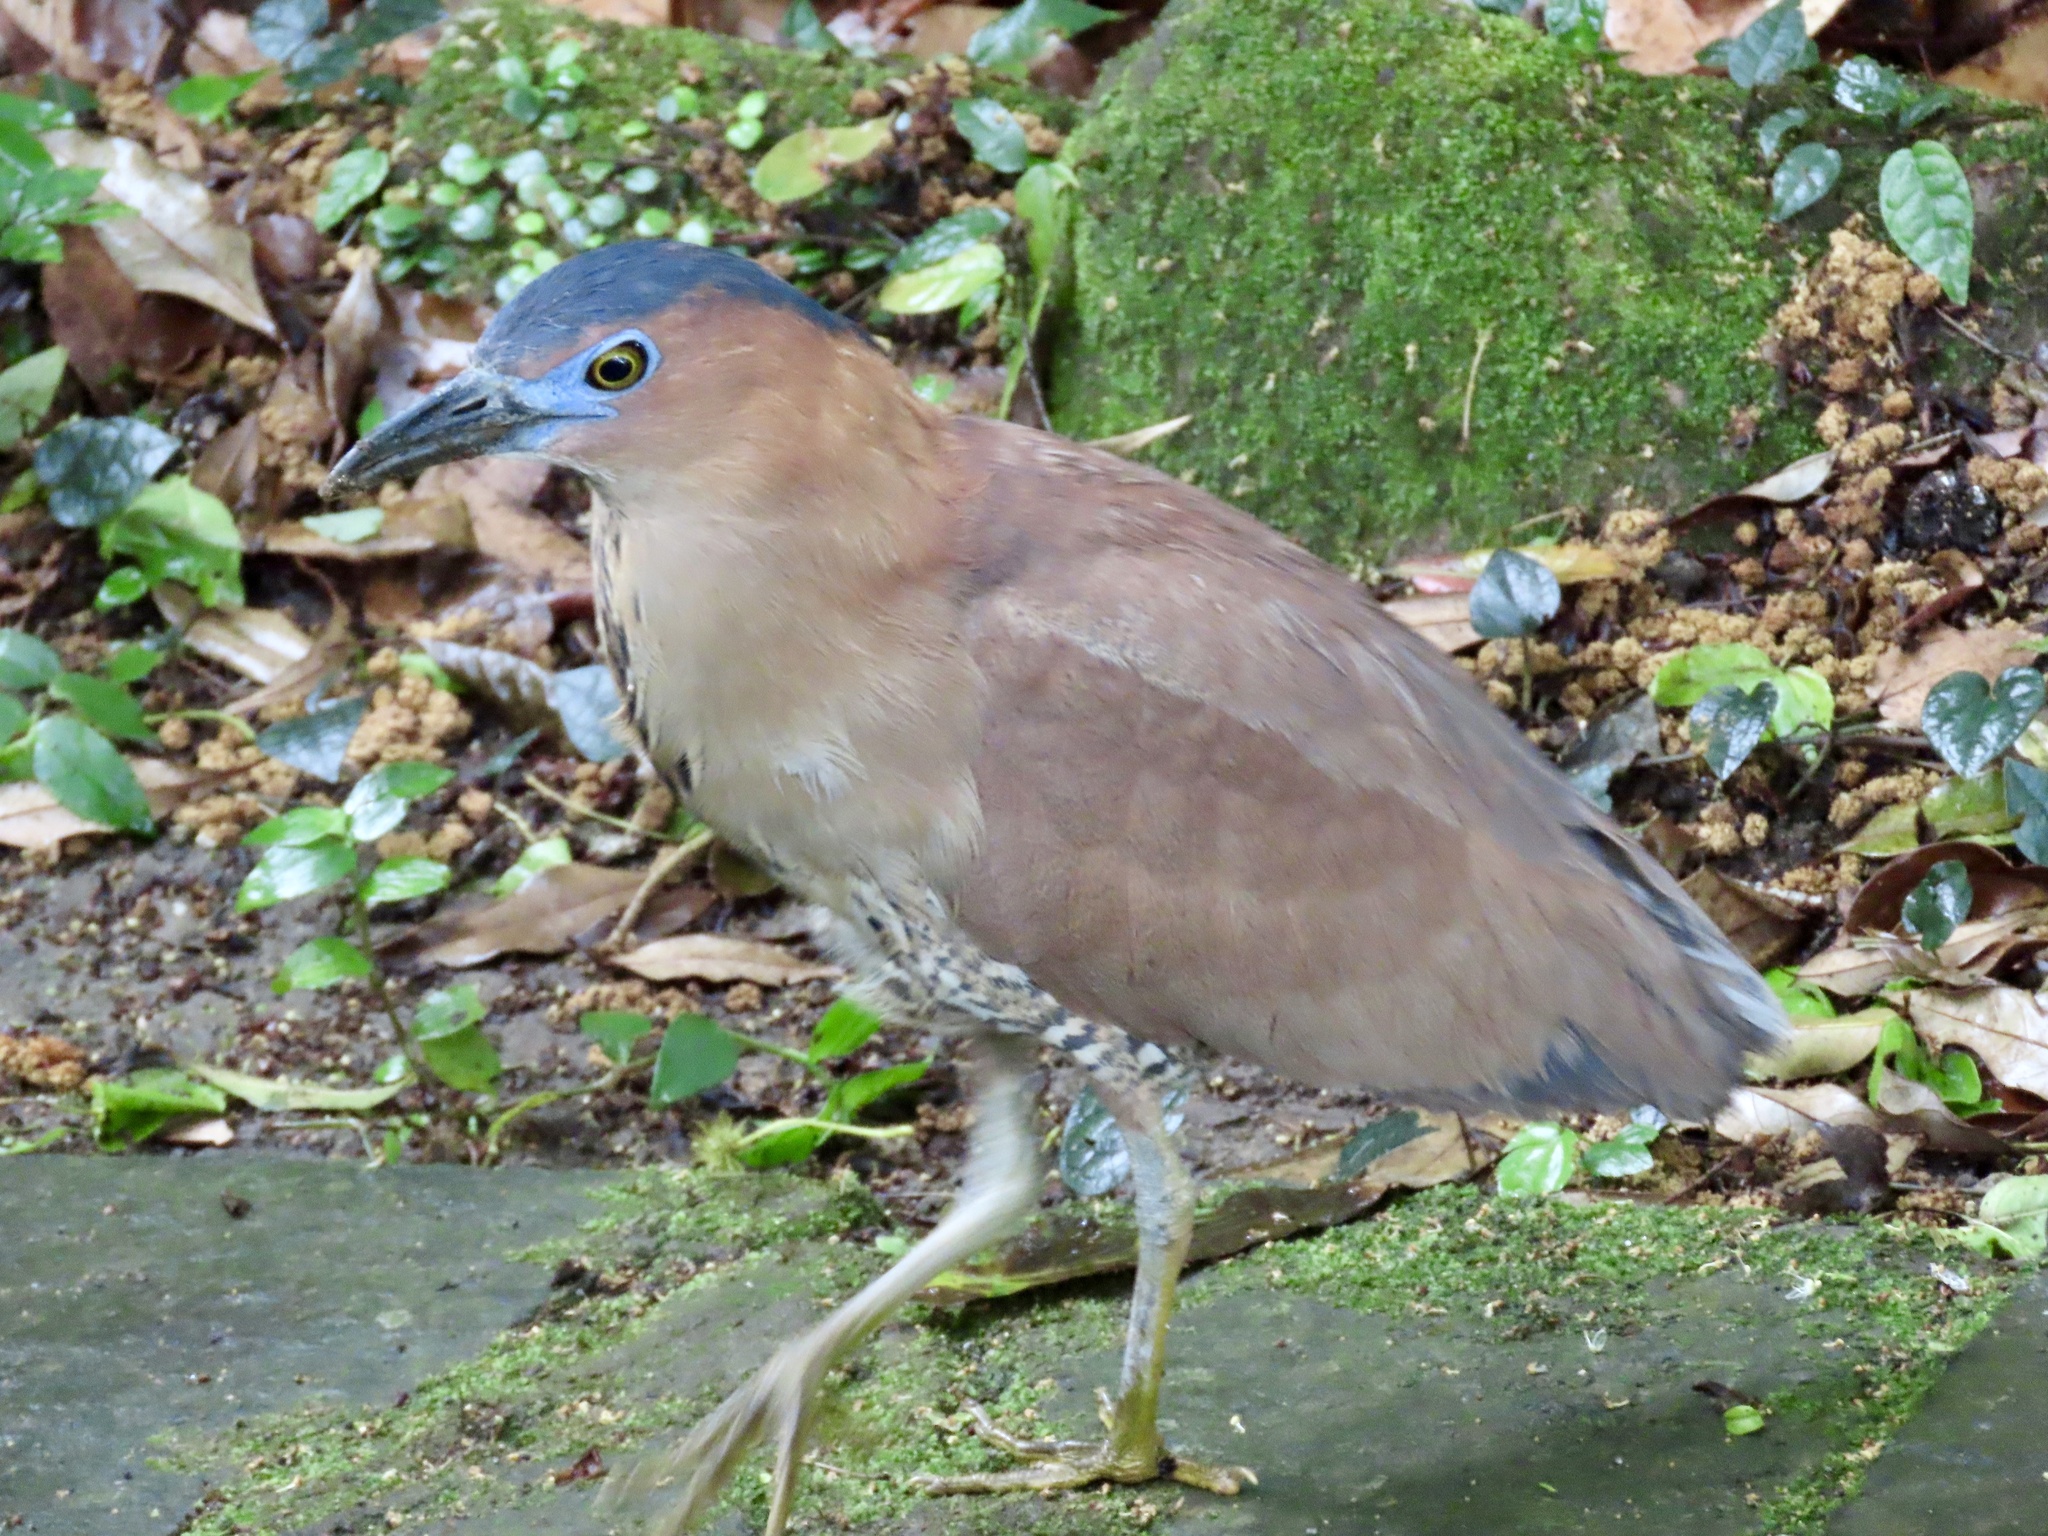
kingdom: Animalia
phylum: Chordata
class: Aves
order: Pelecaniformes
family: Ardeidae
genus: Gorsachius
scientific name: Gorsachius melanolophus
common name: Malayan night heron
